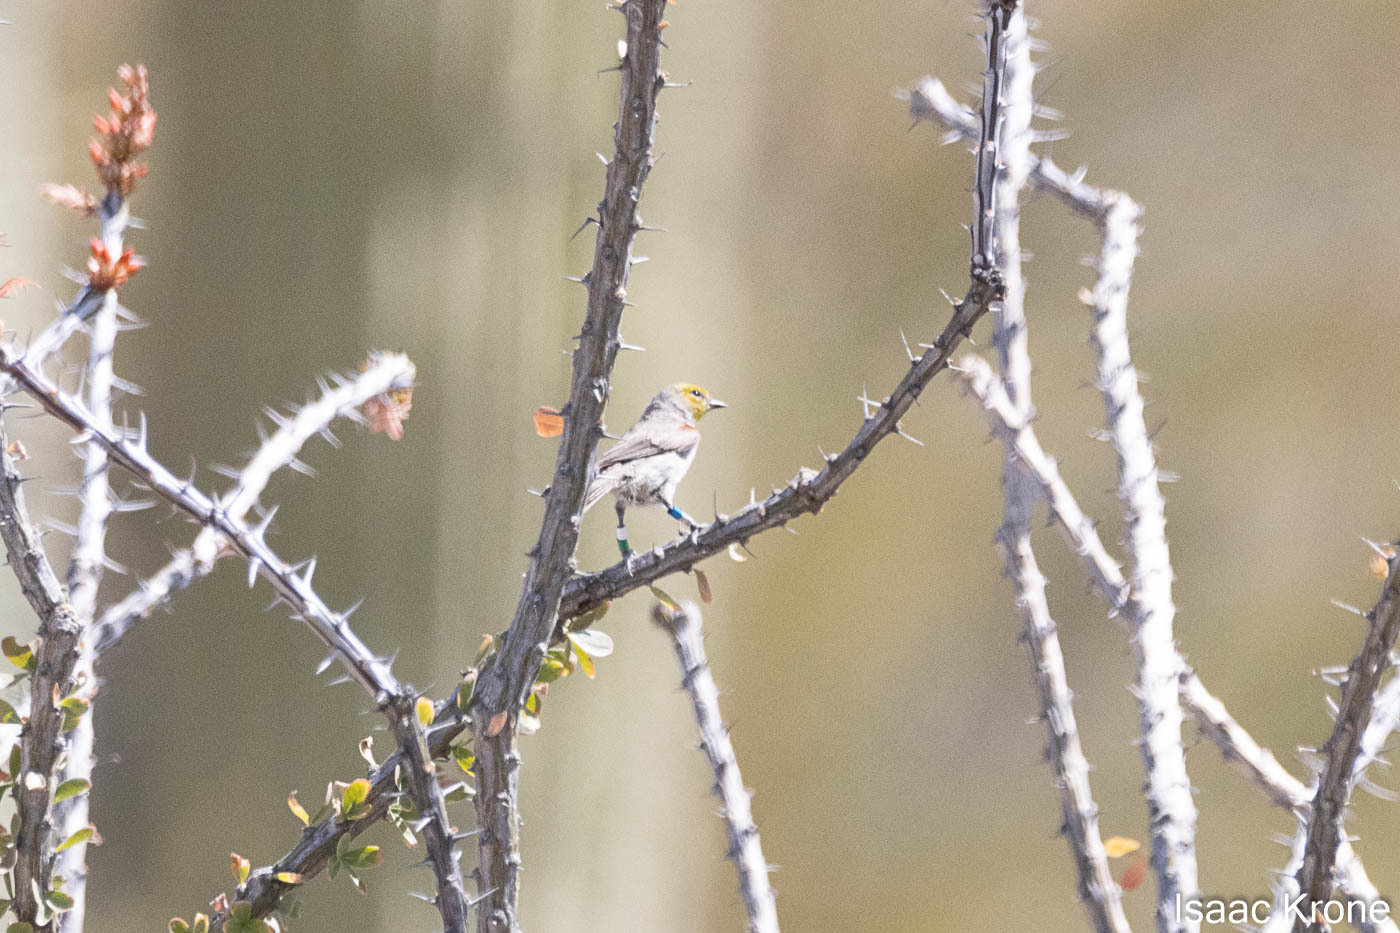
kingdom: Animalia
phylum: Chordata
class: Aves
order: Passeriformes
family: Remizidae
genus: Auriparus
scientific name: Auriparus flaviceps
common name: Verdin
